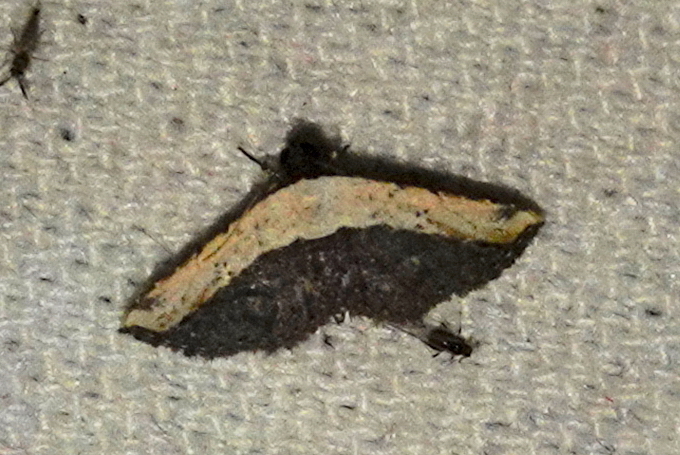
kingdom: Animalia
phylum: Arthropoda
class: Insecta
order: Lepidoptera
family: Noctuidae
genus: Ataboruza
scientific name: Ataboruza divisa
